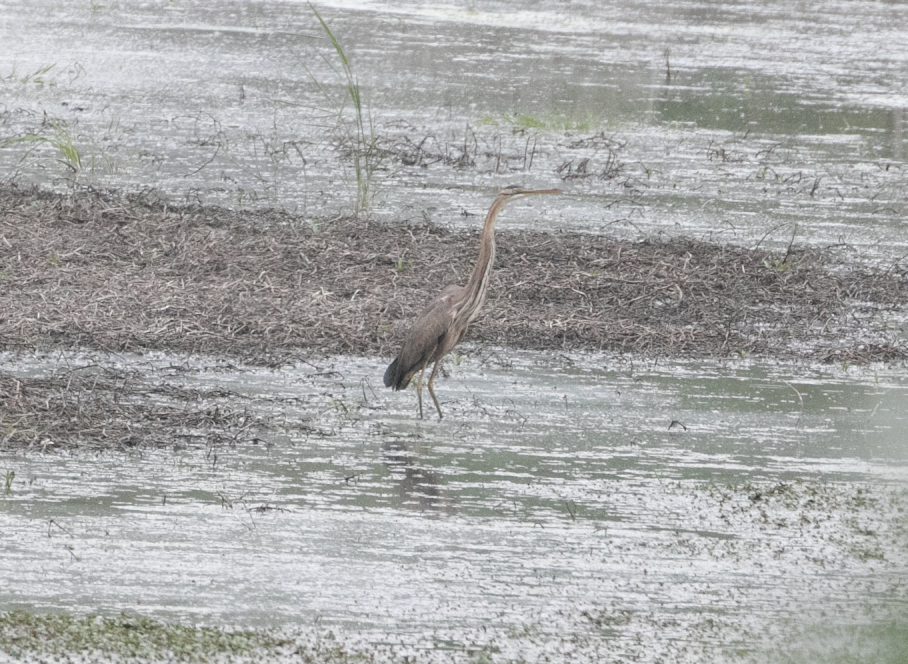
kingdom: Animalia
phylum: Chordata
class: Aves
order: Pelecaniformes
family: Ardeidae
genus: Ardea
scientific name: Ardea purpurea
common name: Purple heron
